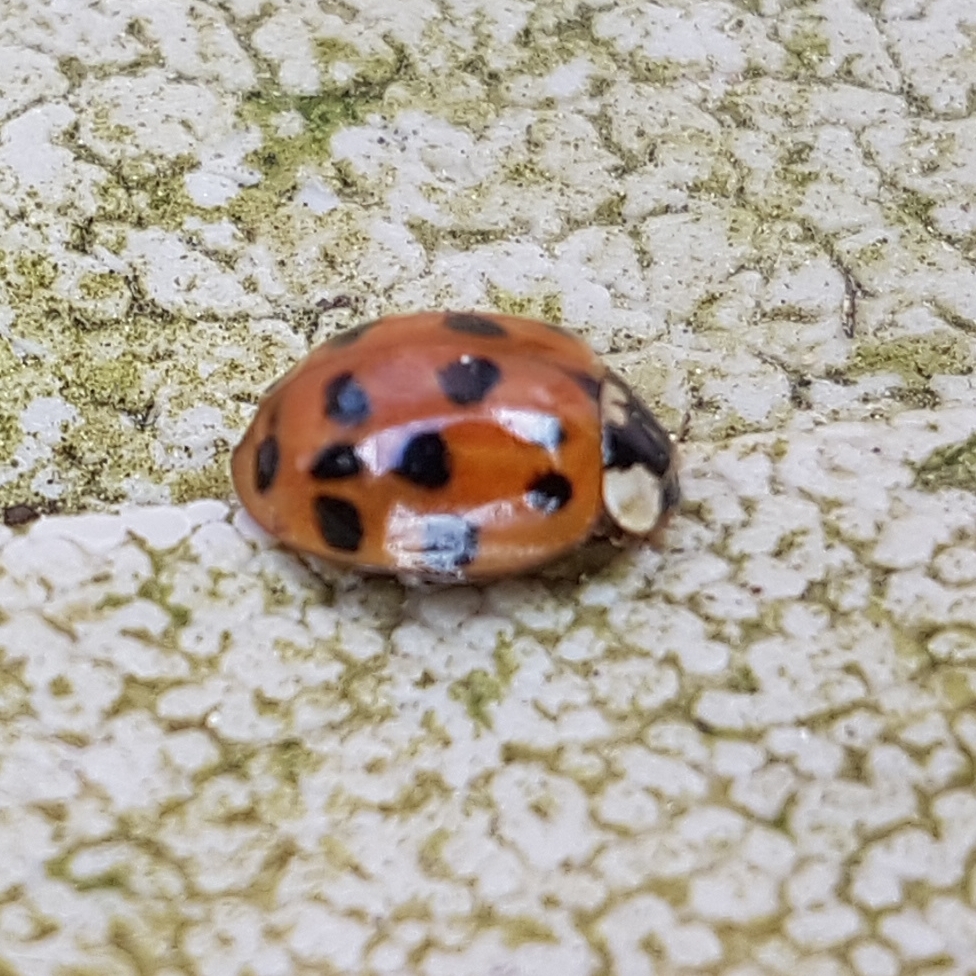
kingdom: Animalia
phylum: Arthropoda
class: Insecta
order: Coleoptera
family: Coccinellidae
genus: Harmonia
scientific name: Harmonia axyridis
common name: Harlequin ladybird
